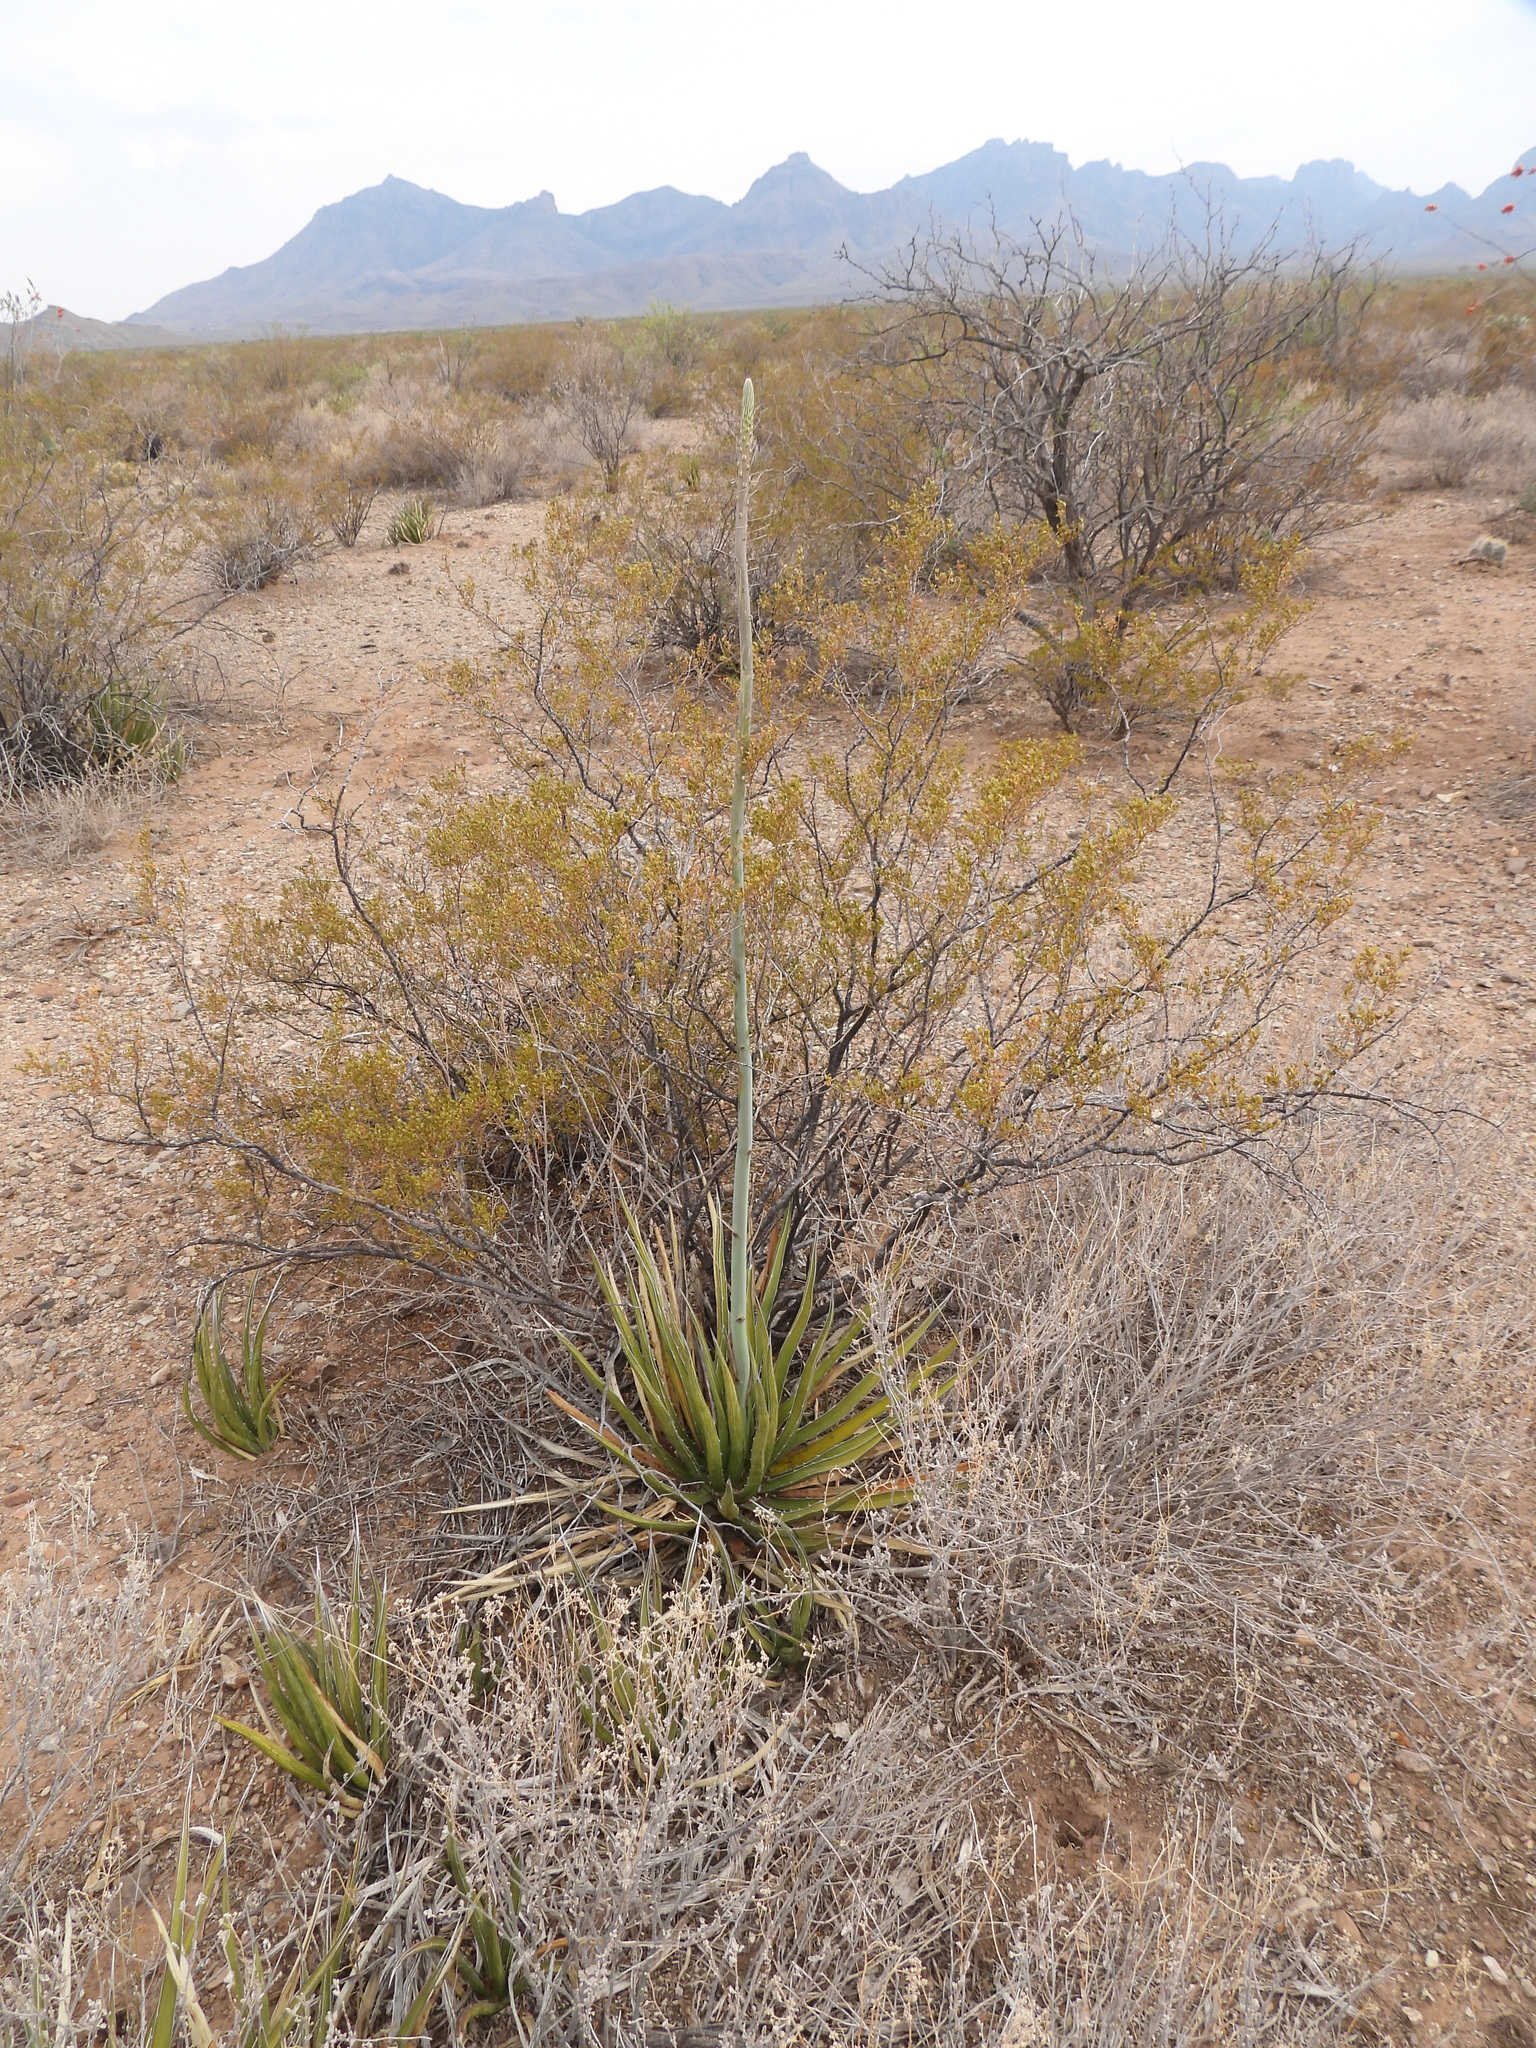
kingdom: Plantae
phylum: Tracheophyta
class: Liliopsida
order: Asparagales
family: Asparagaceae
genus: Agave
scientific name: Agave lechuguilla
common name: Lecheguilla agave
